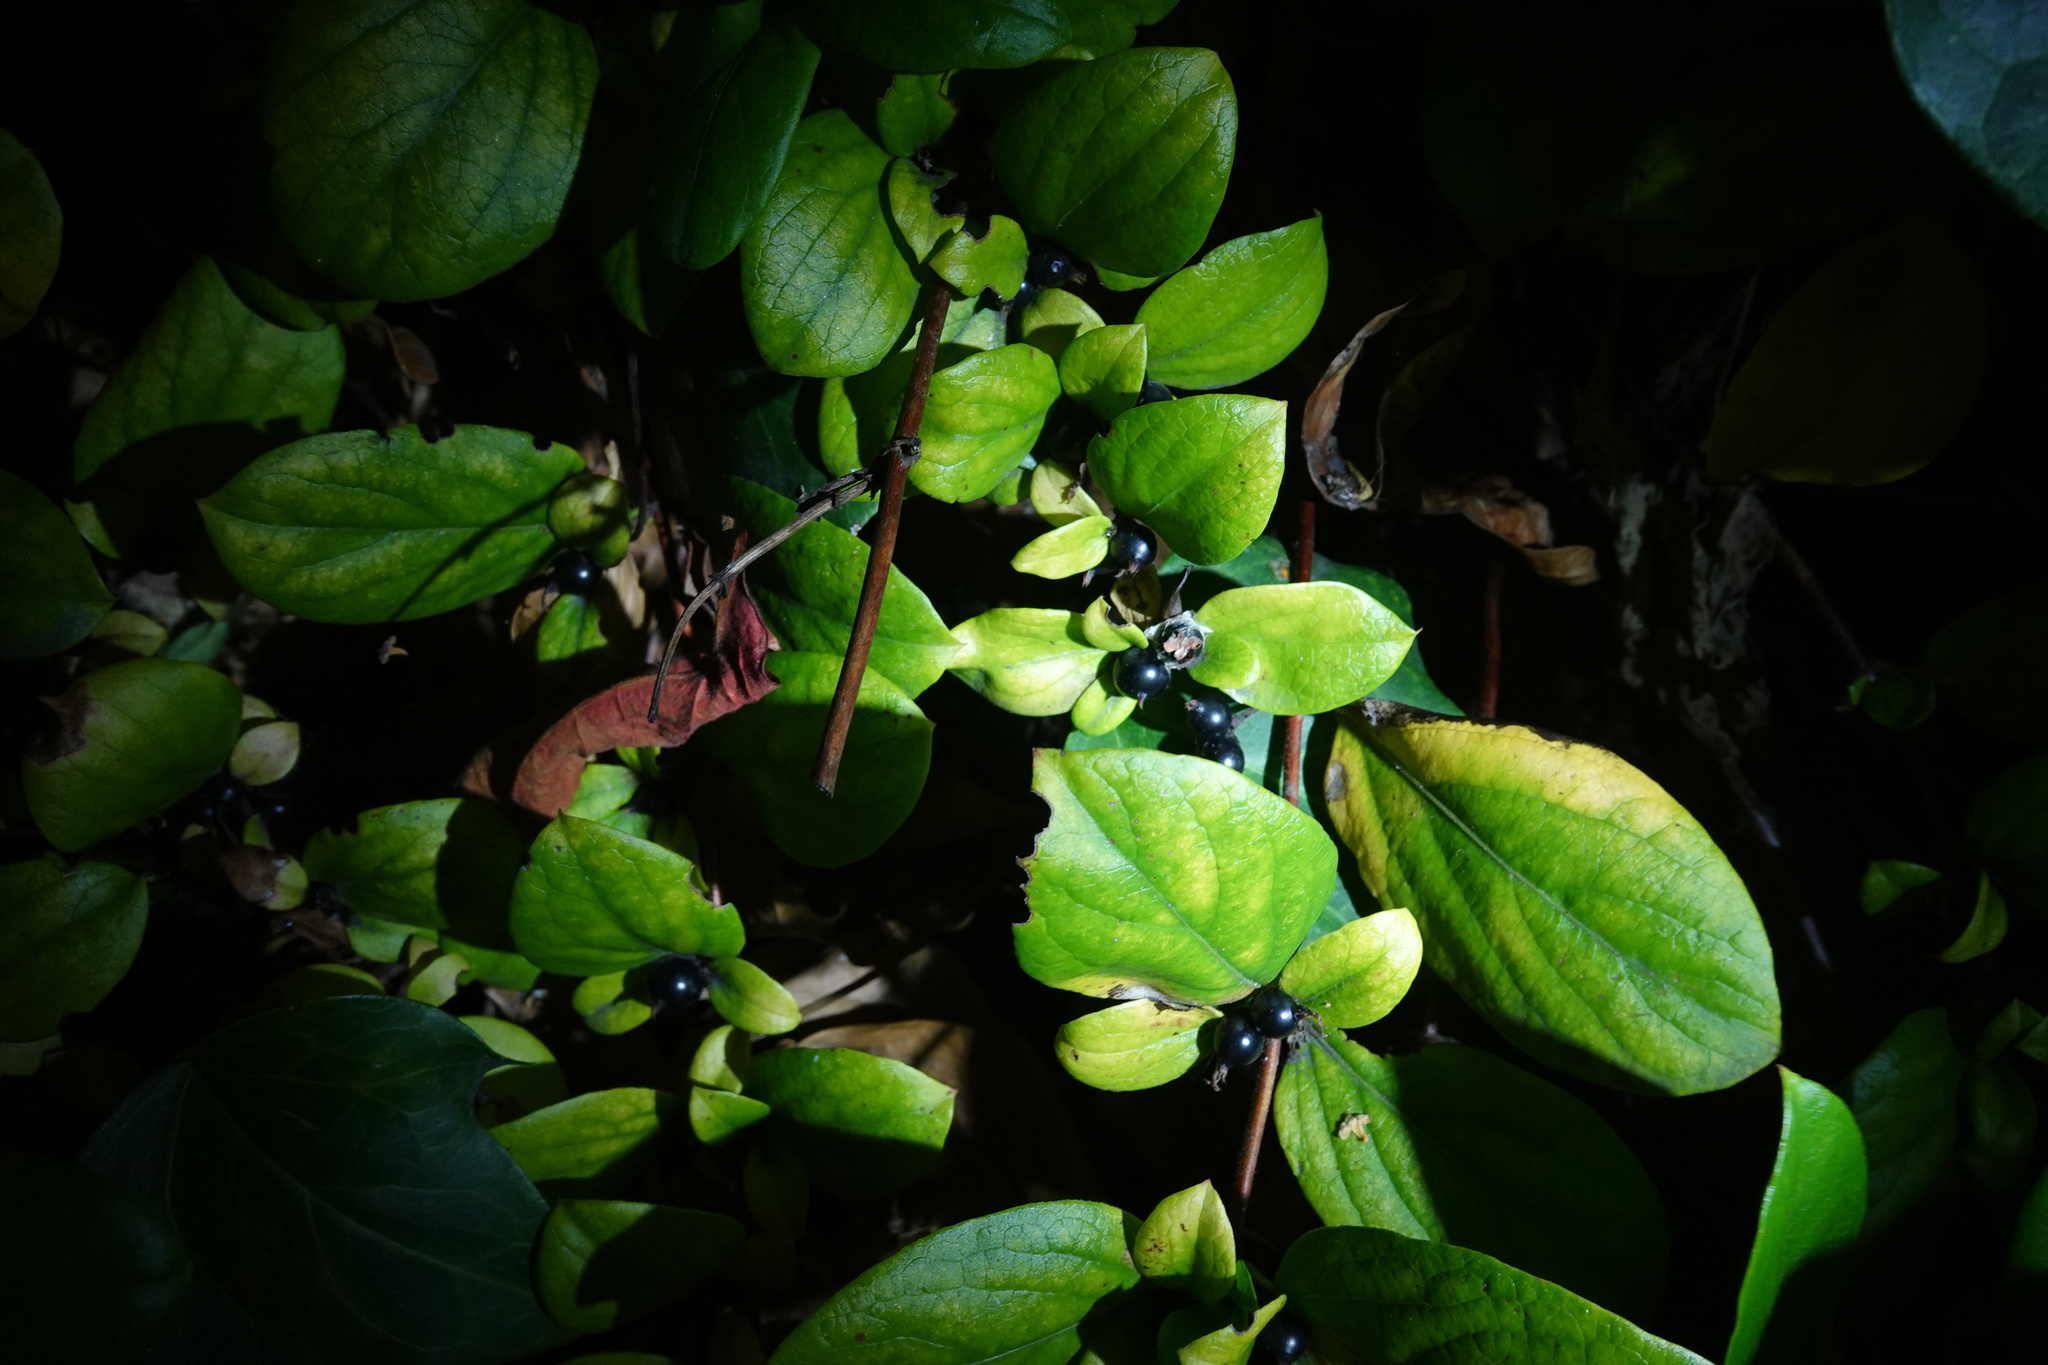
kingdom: Plantae
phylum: Tracheophyta
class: Magnoliopsida
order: Dipsacales
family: Caprifoliaceae
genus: Lonicera
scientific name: Lonicera japonica
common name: Japanese honeysuckle
